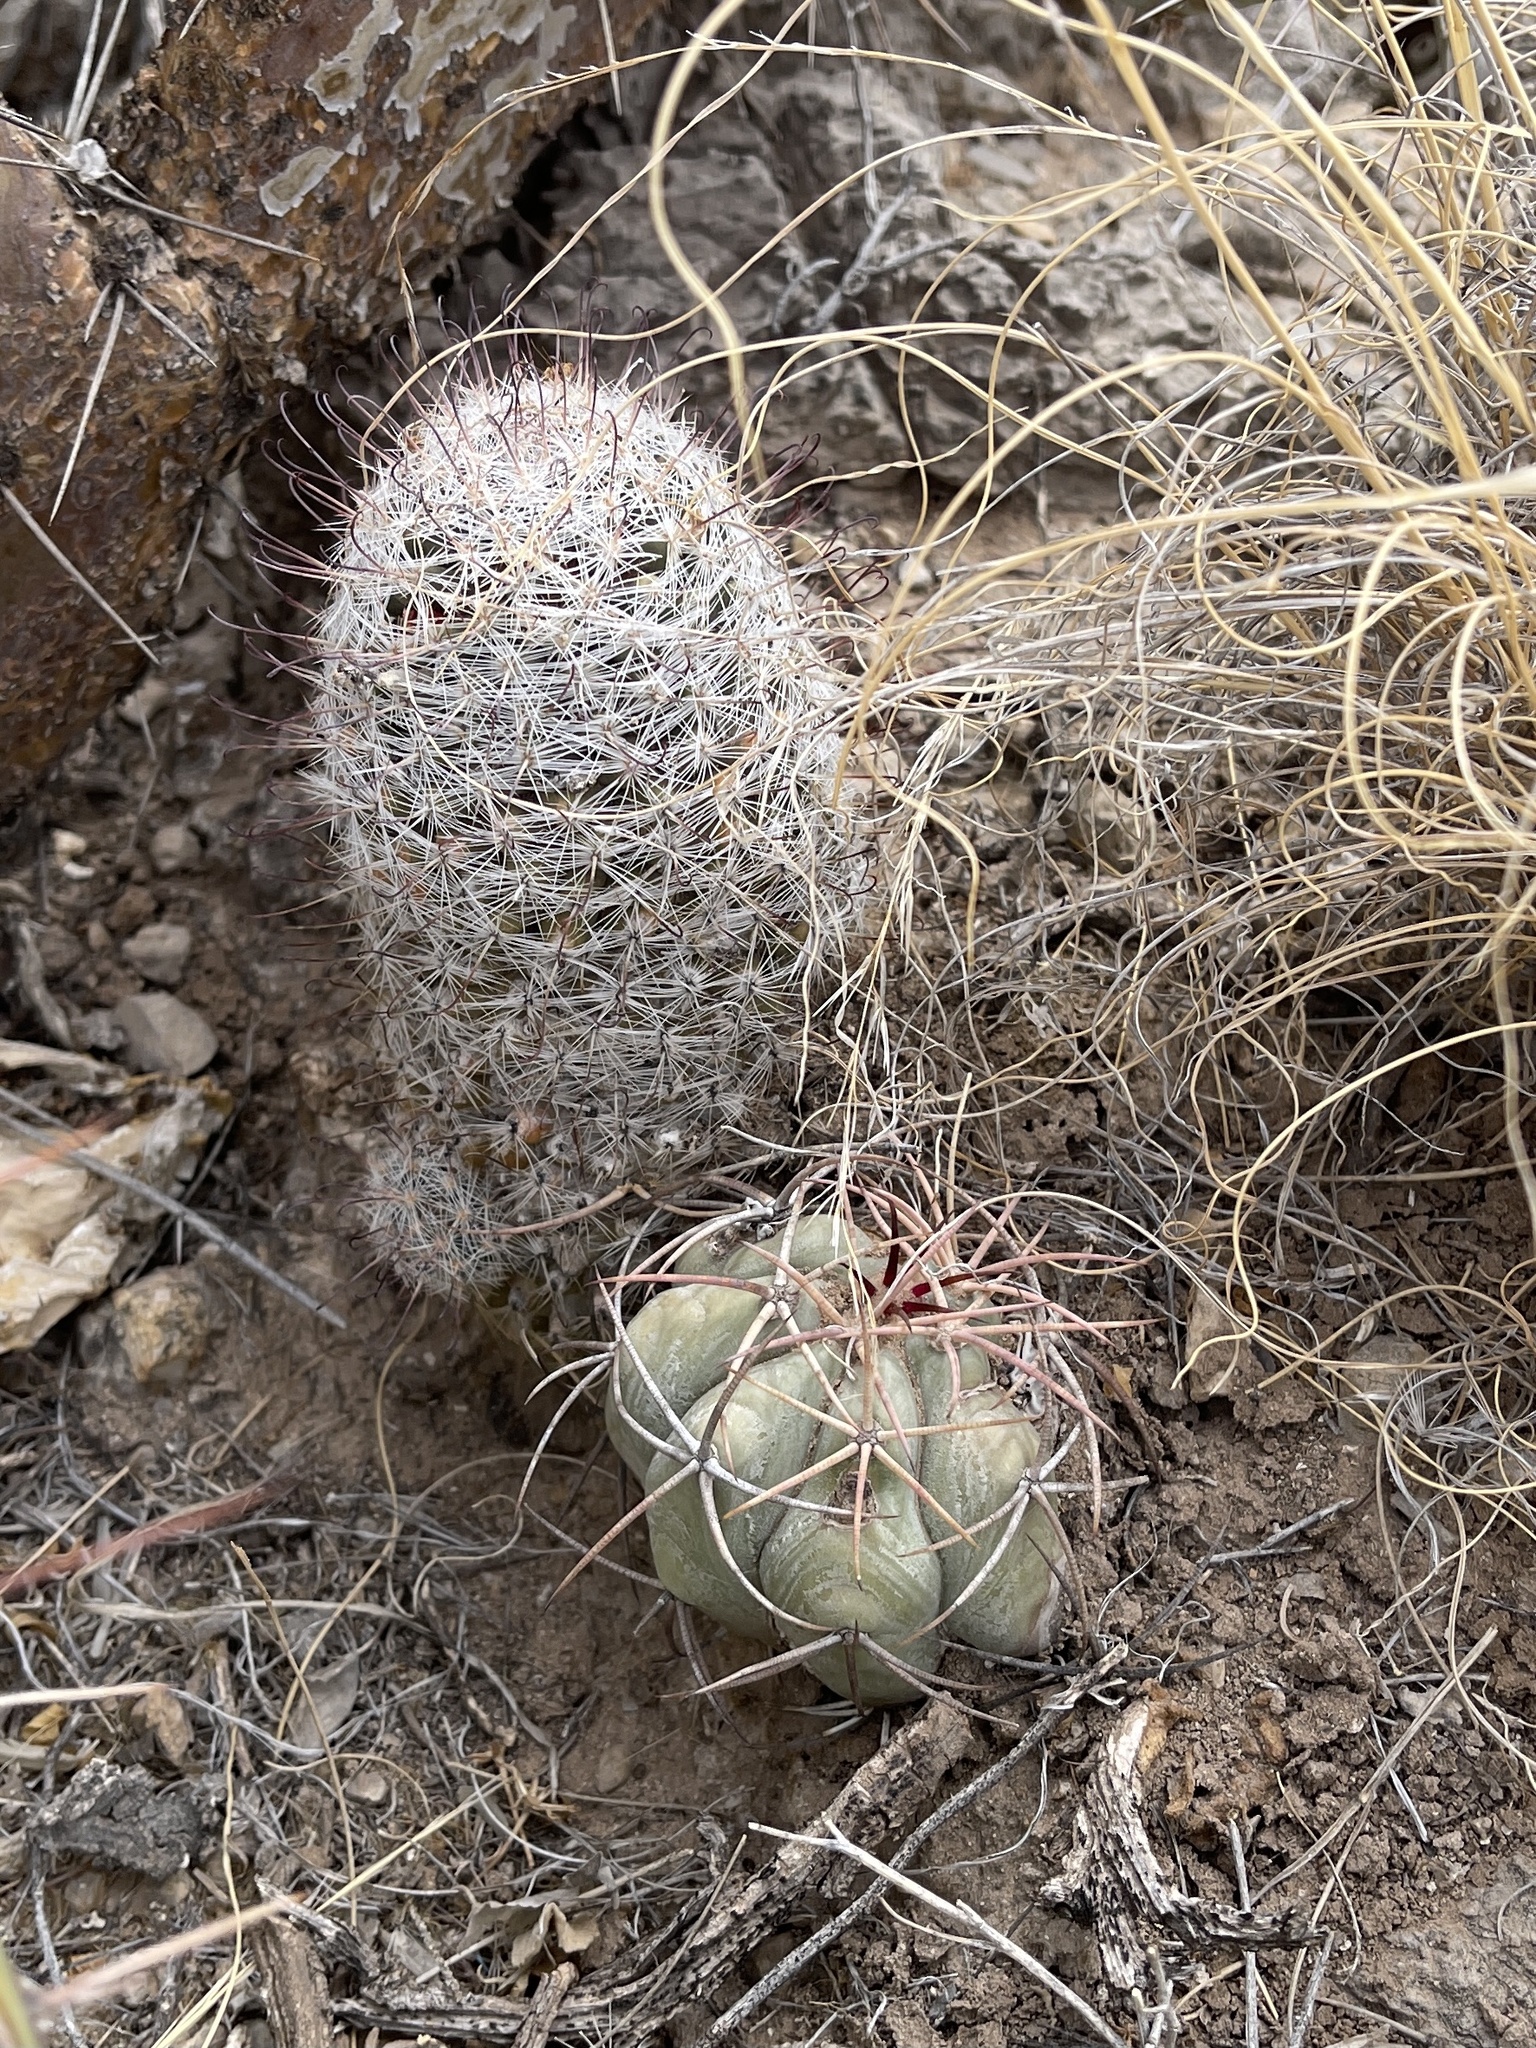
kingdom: Plantae
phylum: Tracheophyta
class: Magnoliopsida
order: Caryophyllales
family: Cactaceae
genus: Echinocactus
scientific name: Echinocactus horizonthalonius
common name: Devilshead
